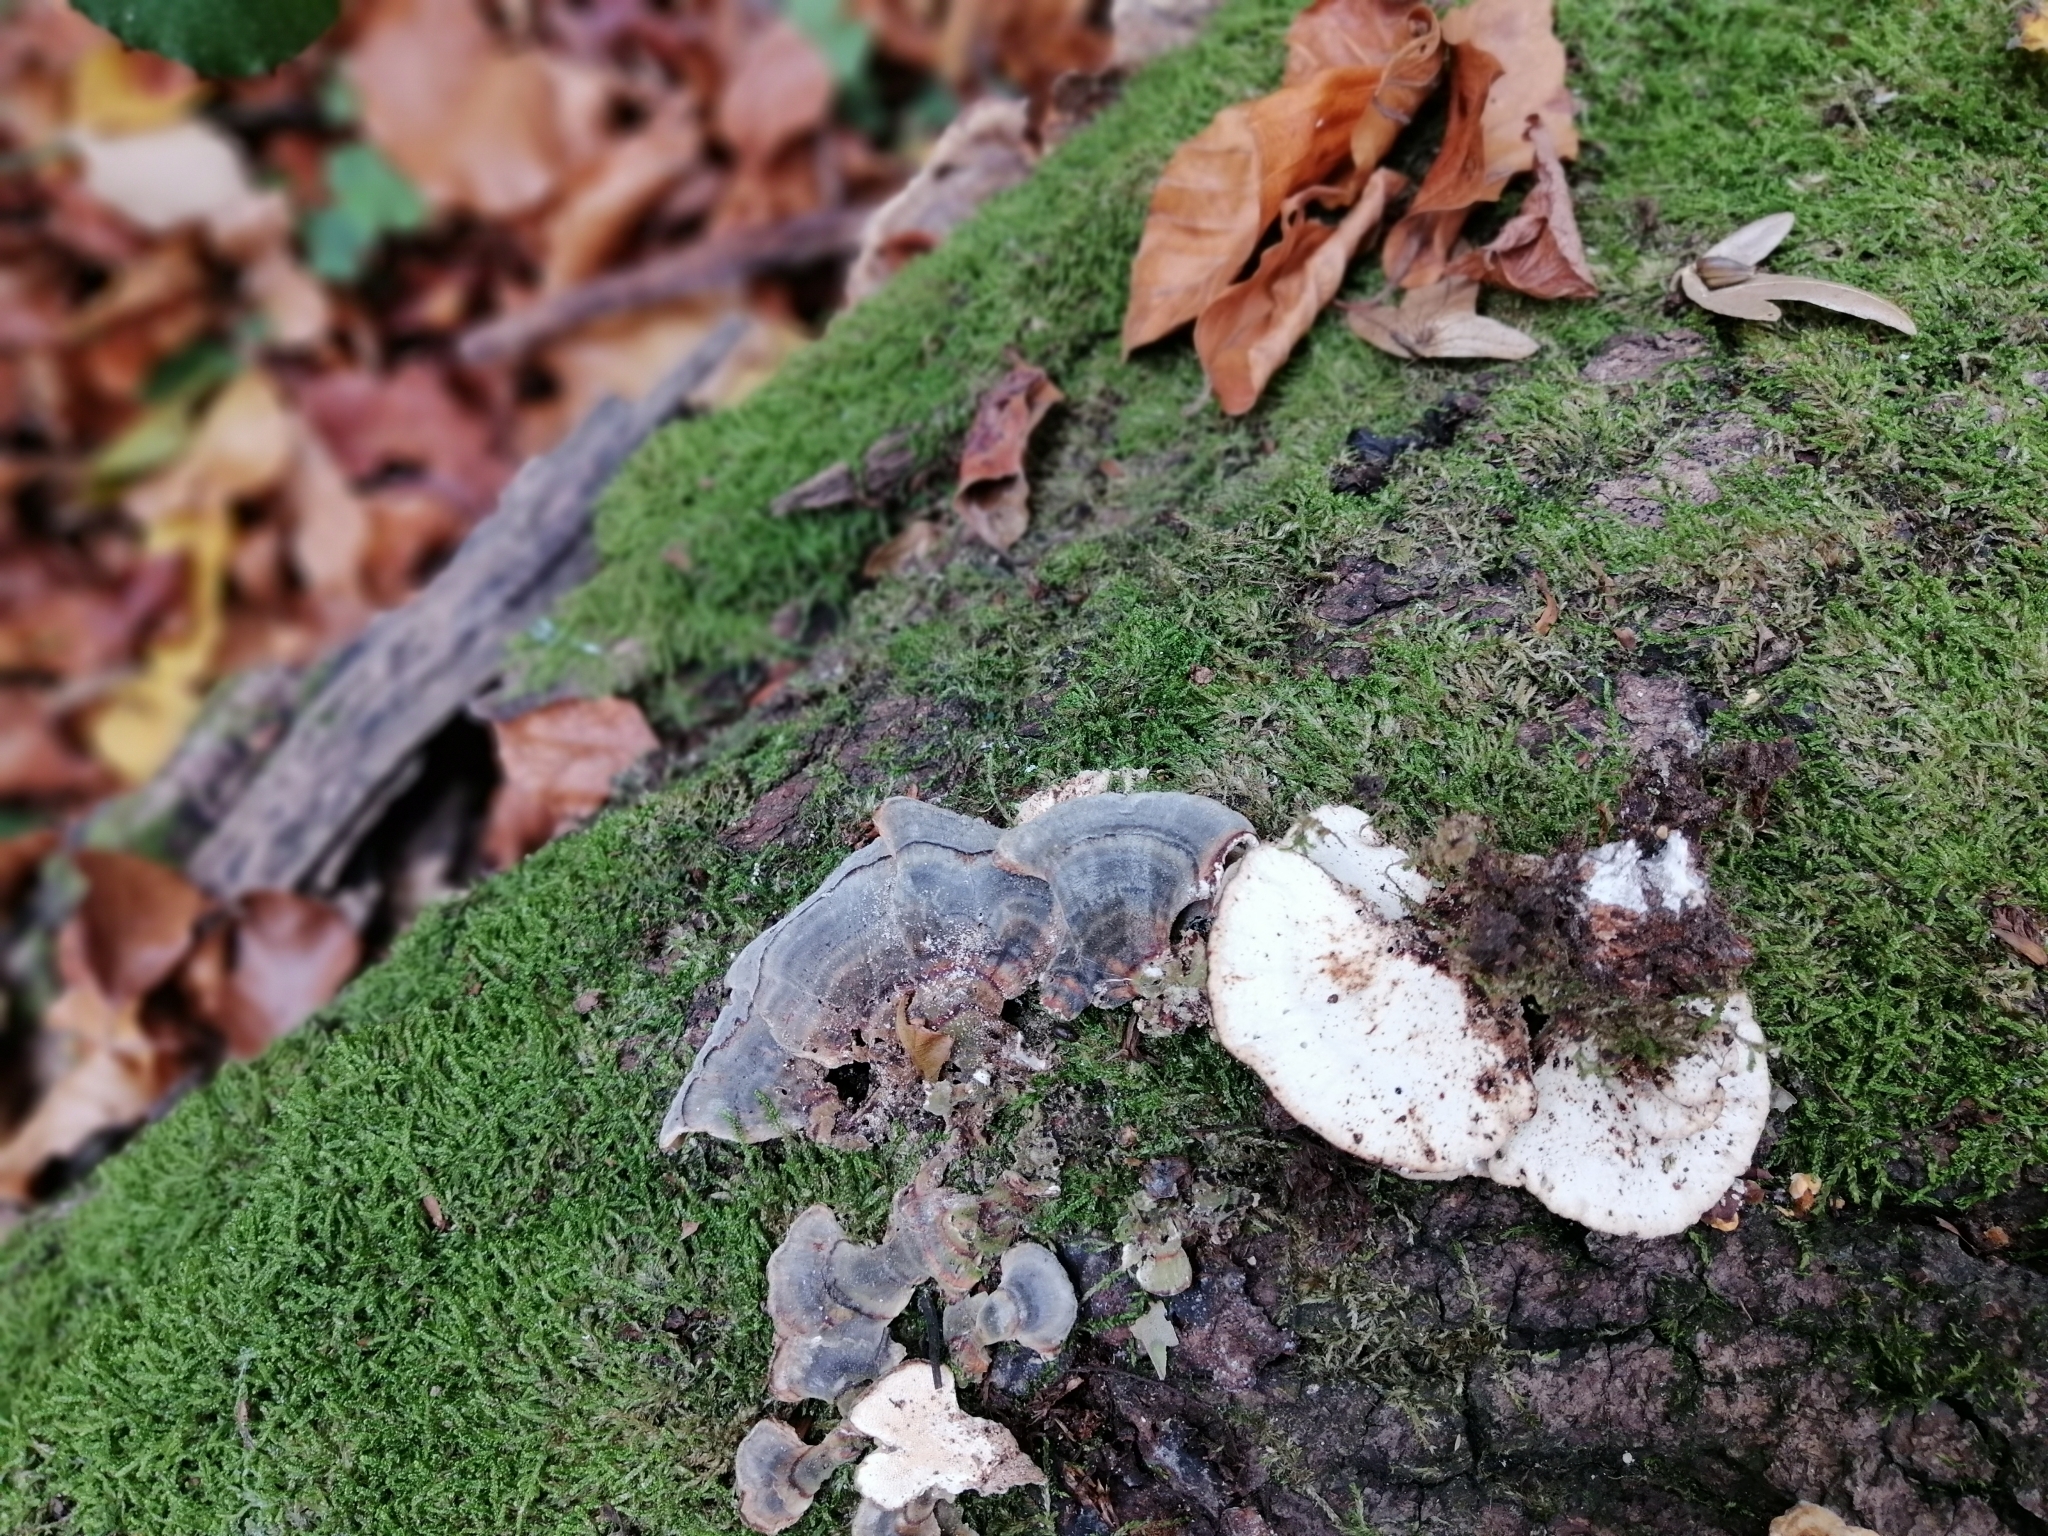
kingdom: Fungi
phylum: Basidiomycota
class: Agaricomycetes
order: Polyporales
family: Polyporaceae
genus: Trametes
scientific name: Trametes versicolor
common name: Turkeytail
